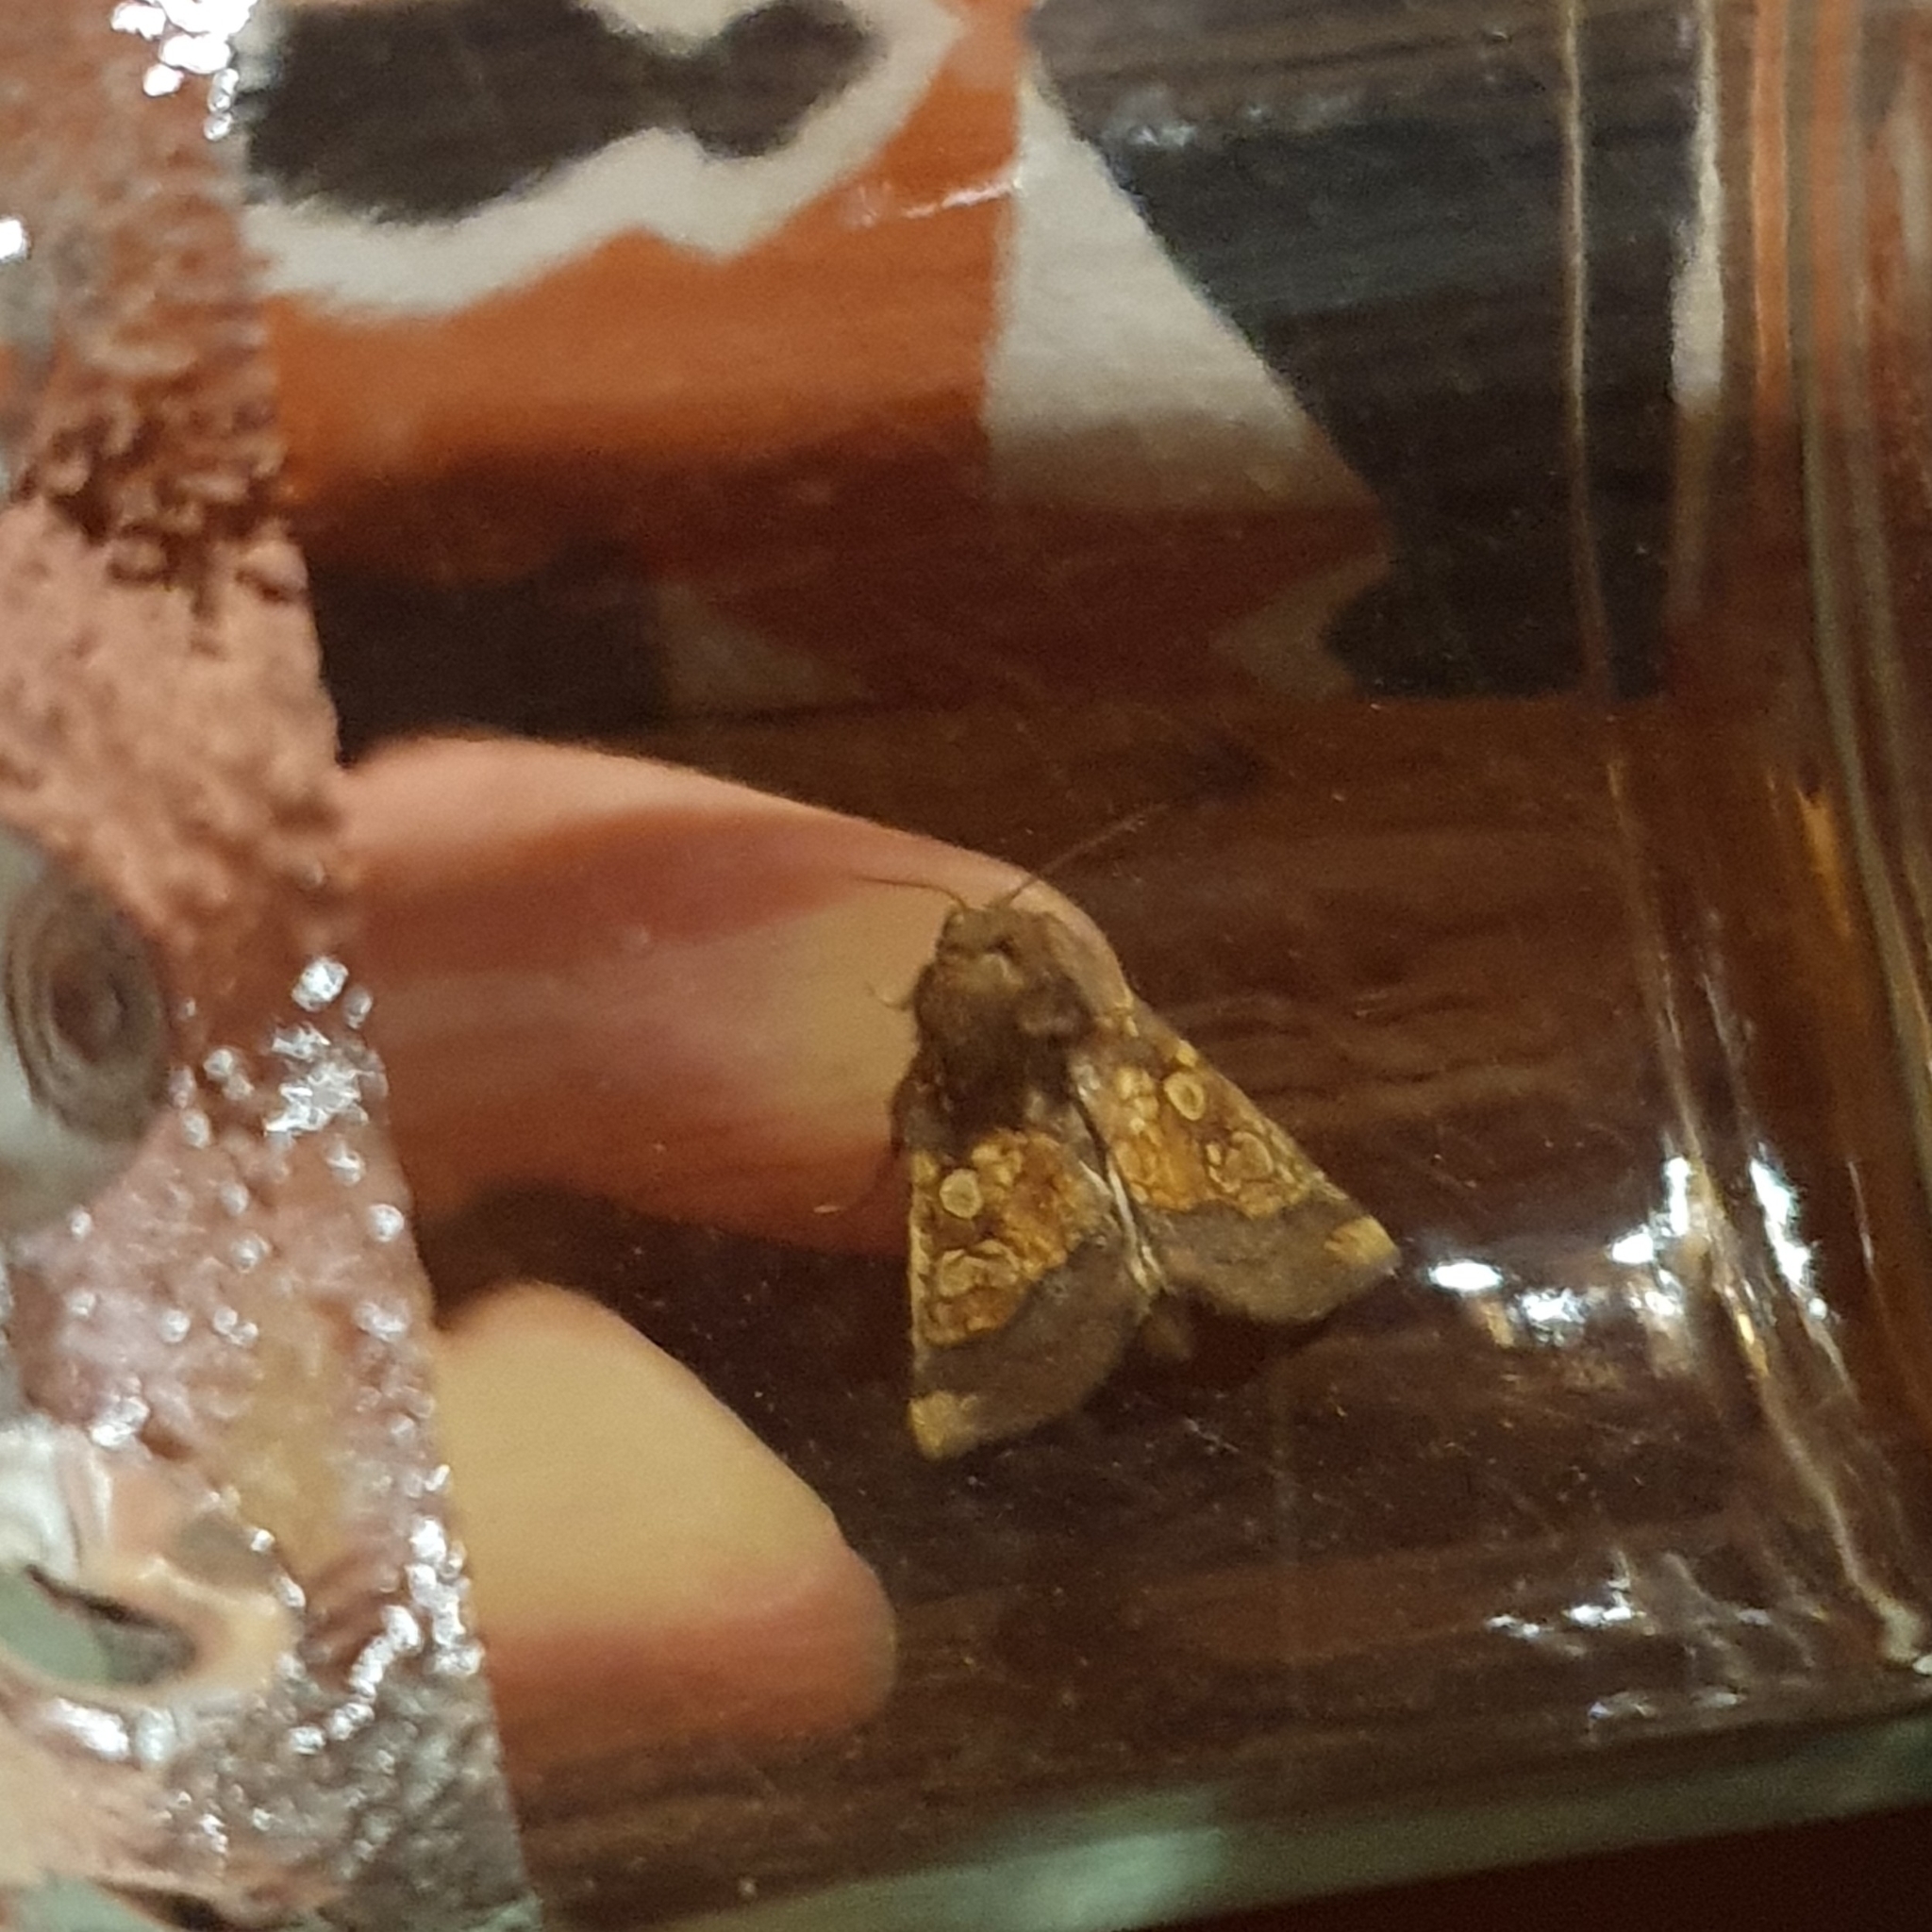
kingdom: Animalia
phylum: Arthropoda
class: Insecta
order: Lepidoptera
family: Noctuidae
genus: Gortyna
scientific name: Gortyna flavago
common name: Frosted orange
